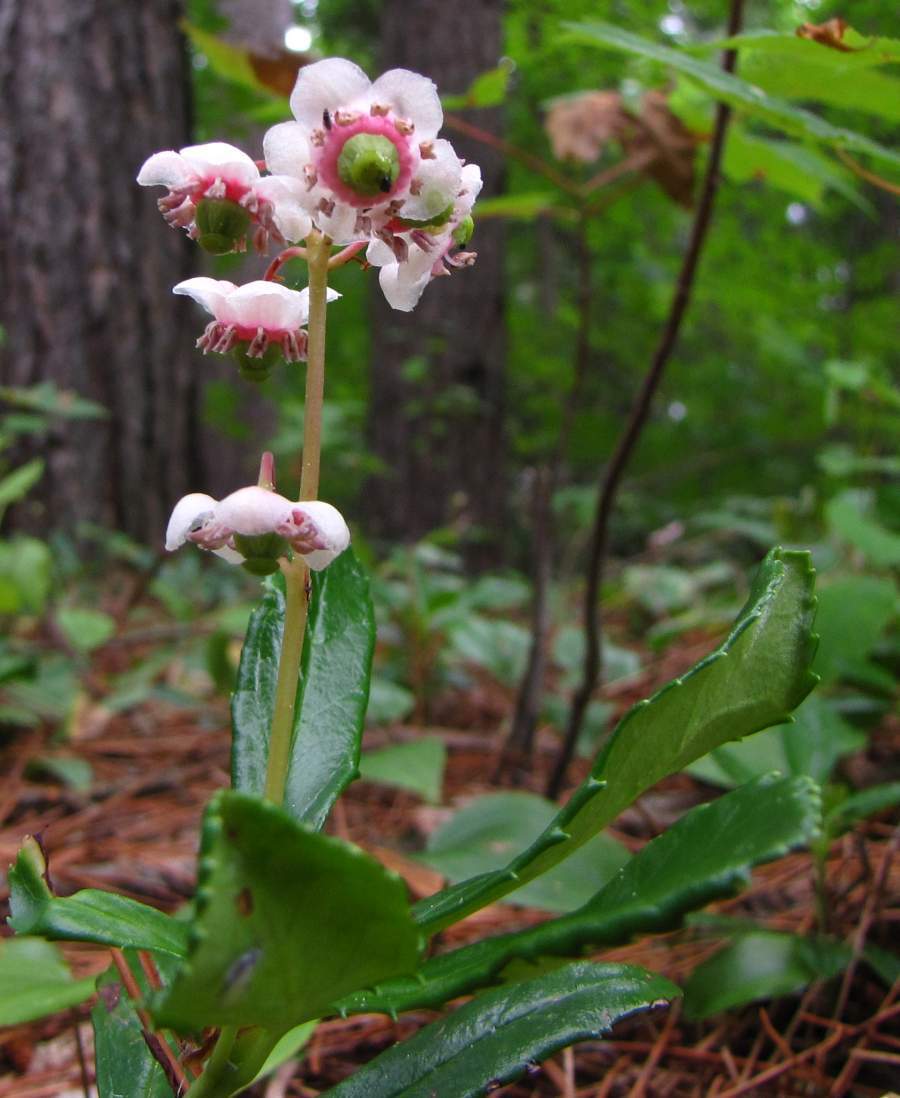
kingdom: Plantae
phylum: Tracheophyta
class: Magnoliopsida
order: Ericales
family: Ericaceae
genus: Chimaphila
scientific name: Chimaphila umbellata
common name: Pipsissewa
